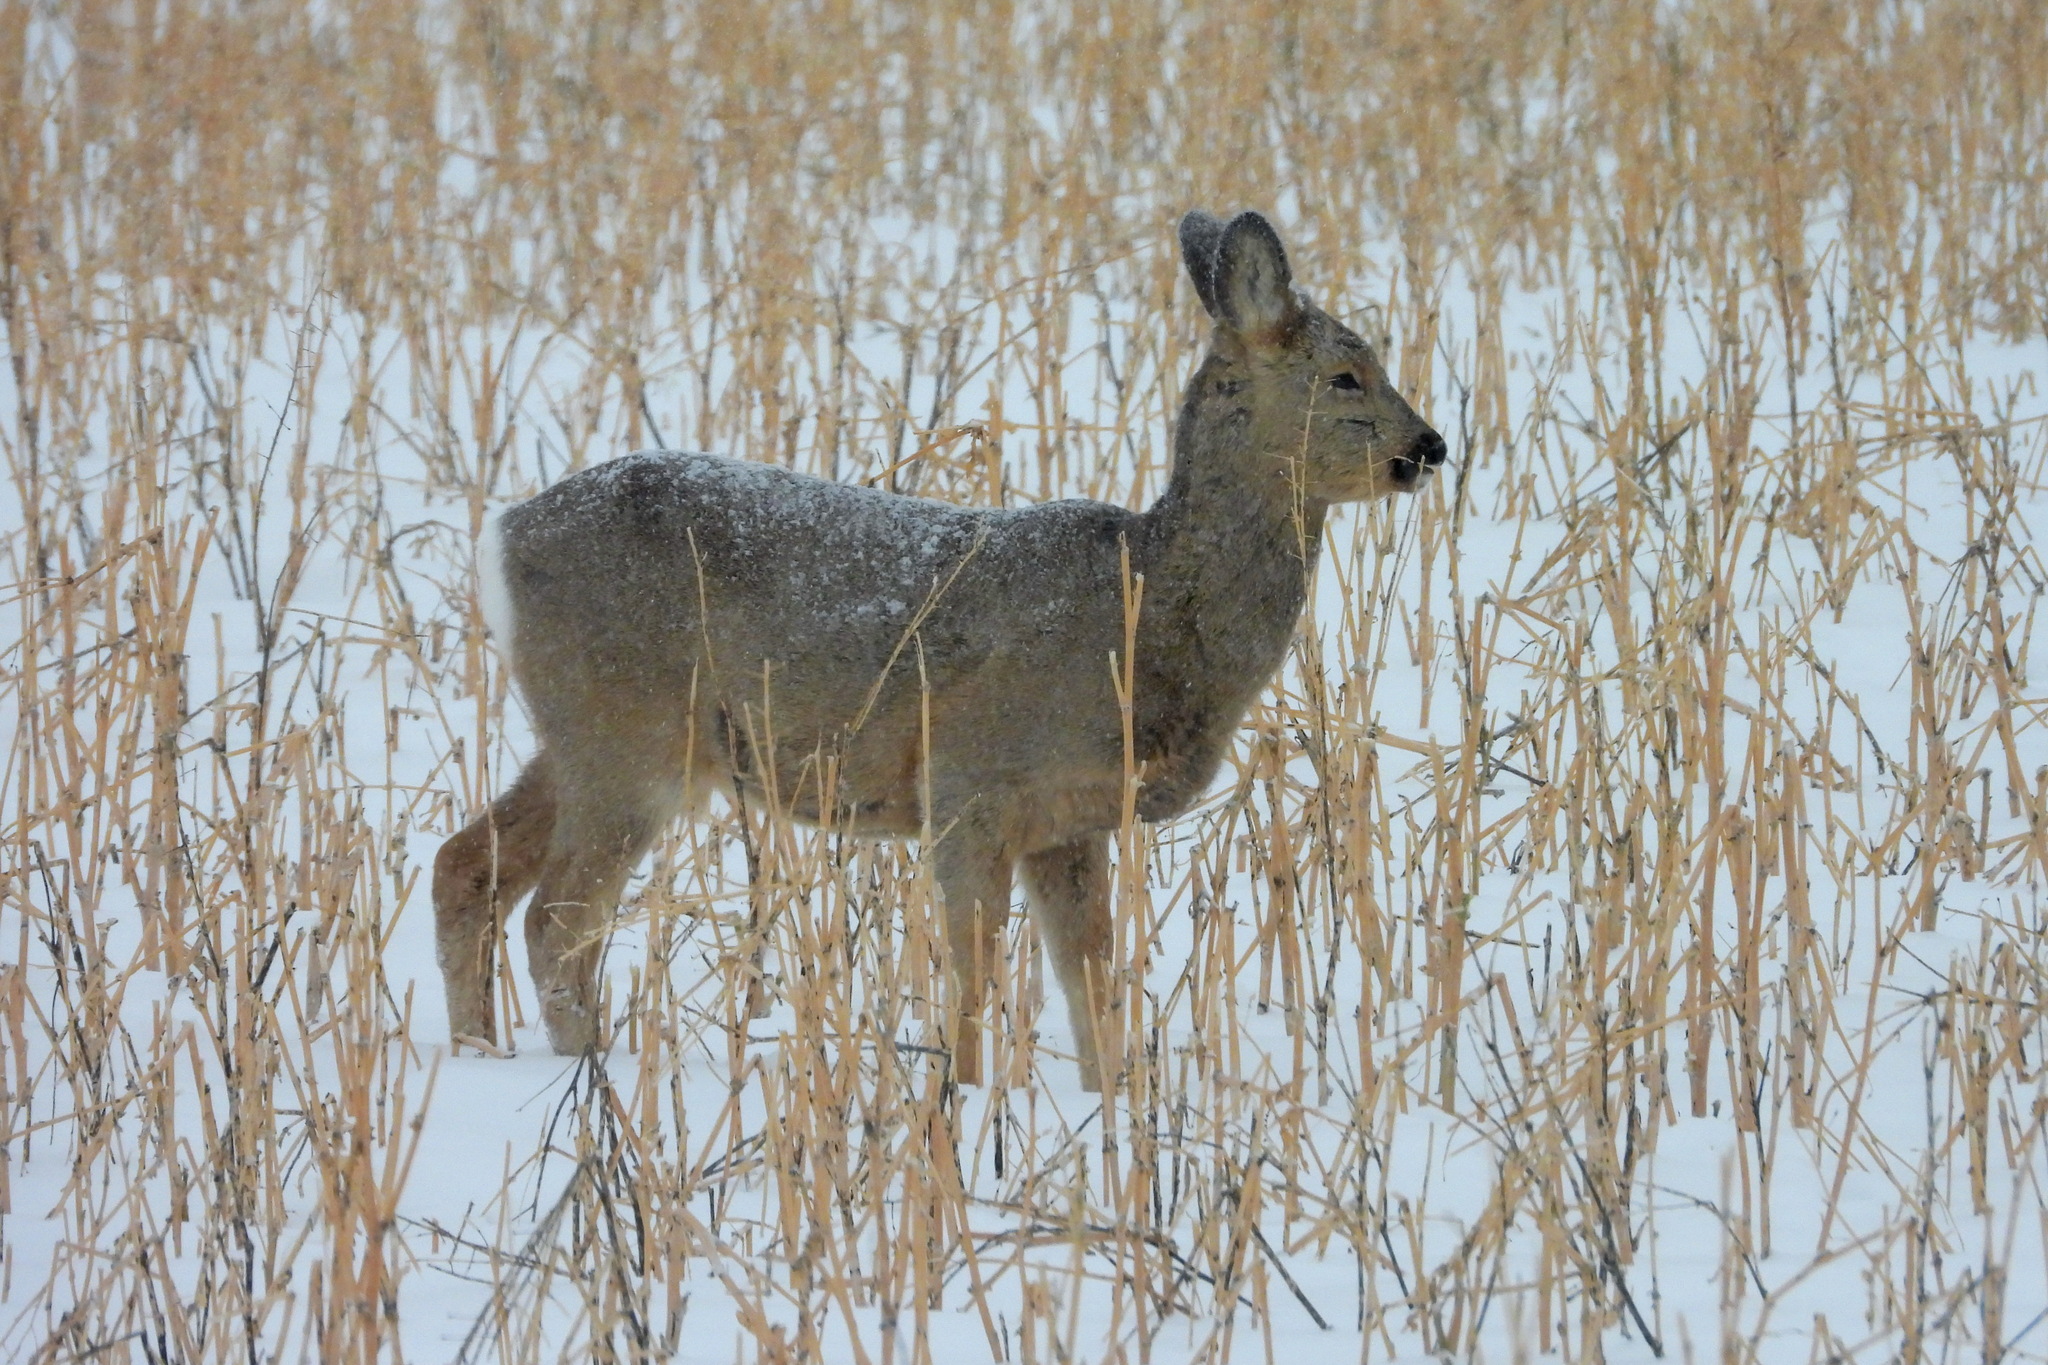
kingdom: Animalia
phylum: Chordata
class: Mammalia
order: Artiodactyla
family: Cervidae
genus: Capreolus
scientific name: Capreolus pygargus
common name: Siberian roe
